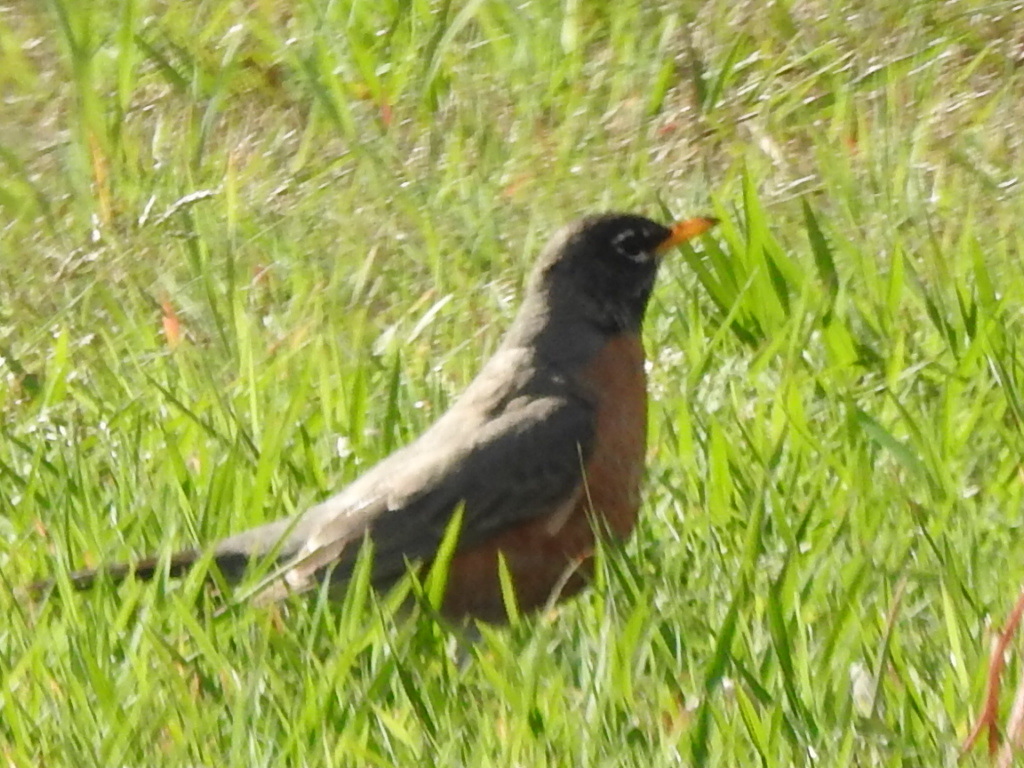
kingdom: Animalia
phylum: Chordata
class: Aves
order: Passeriformes
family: Turdidae
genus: Turdus
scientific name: Turdus migratorius
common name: American robin
